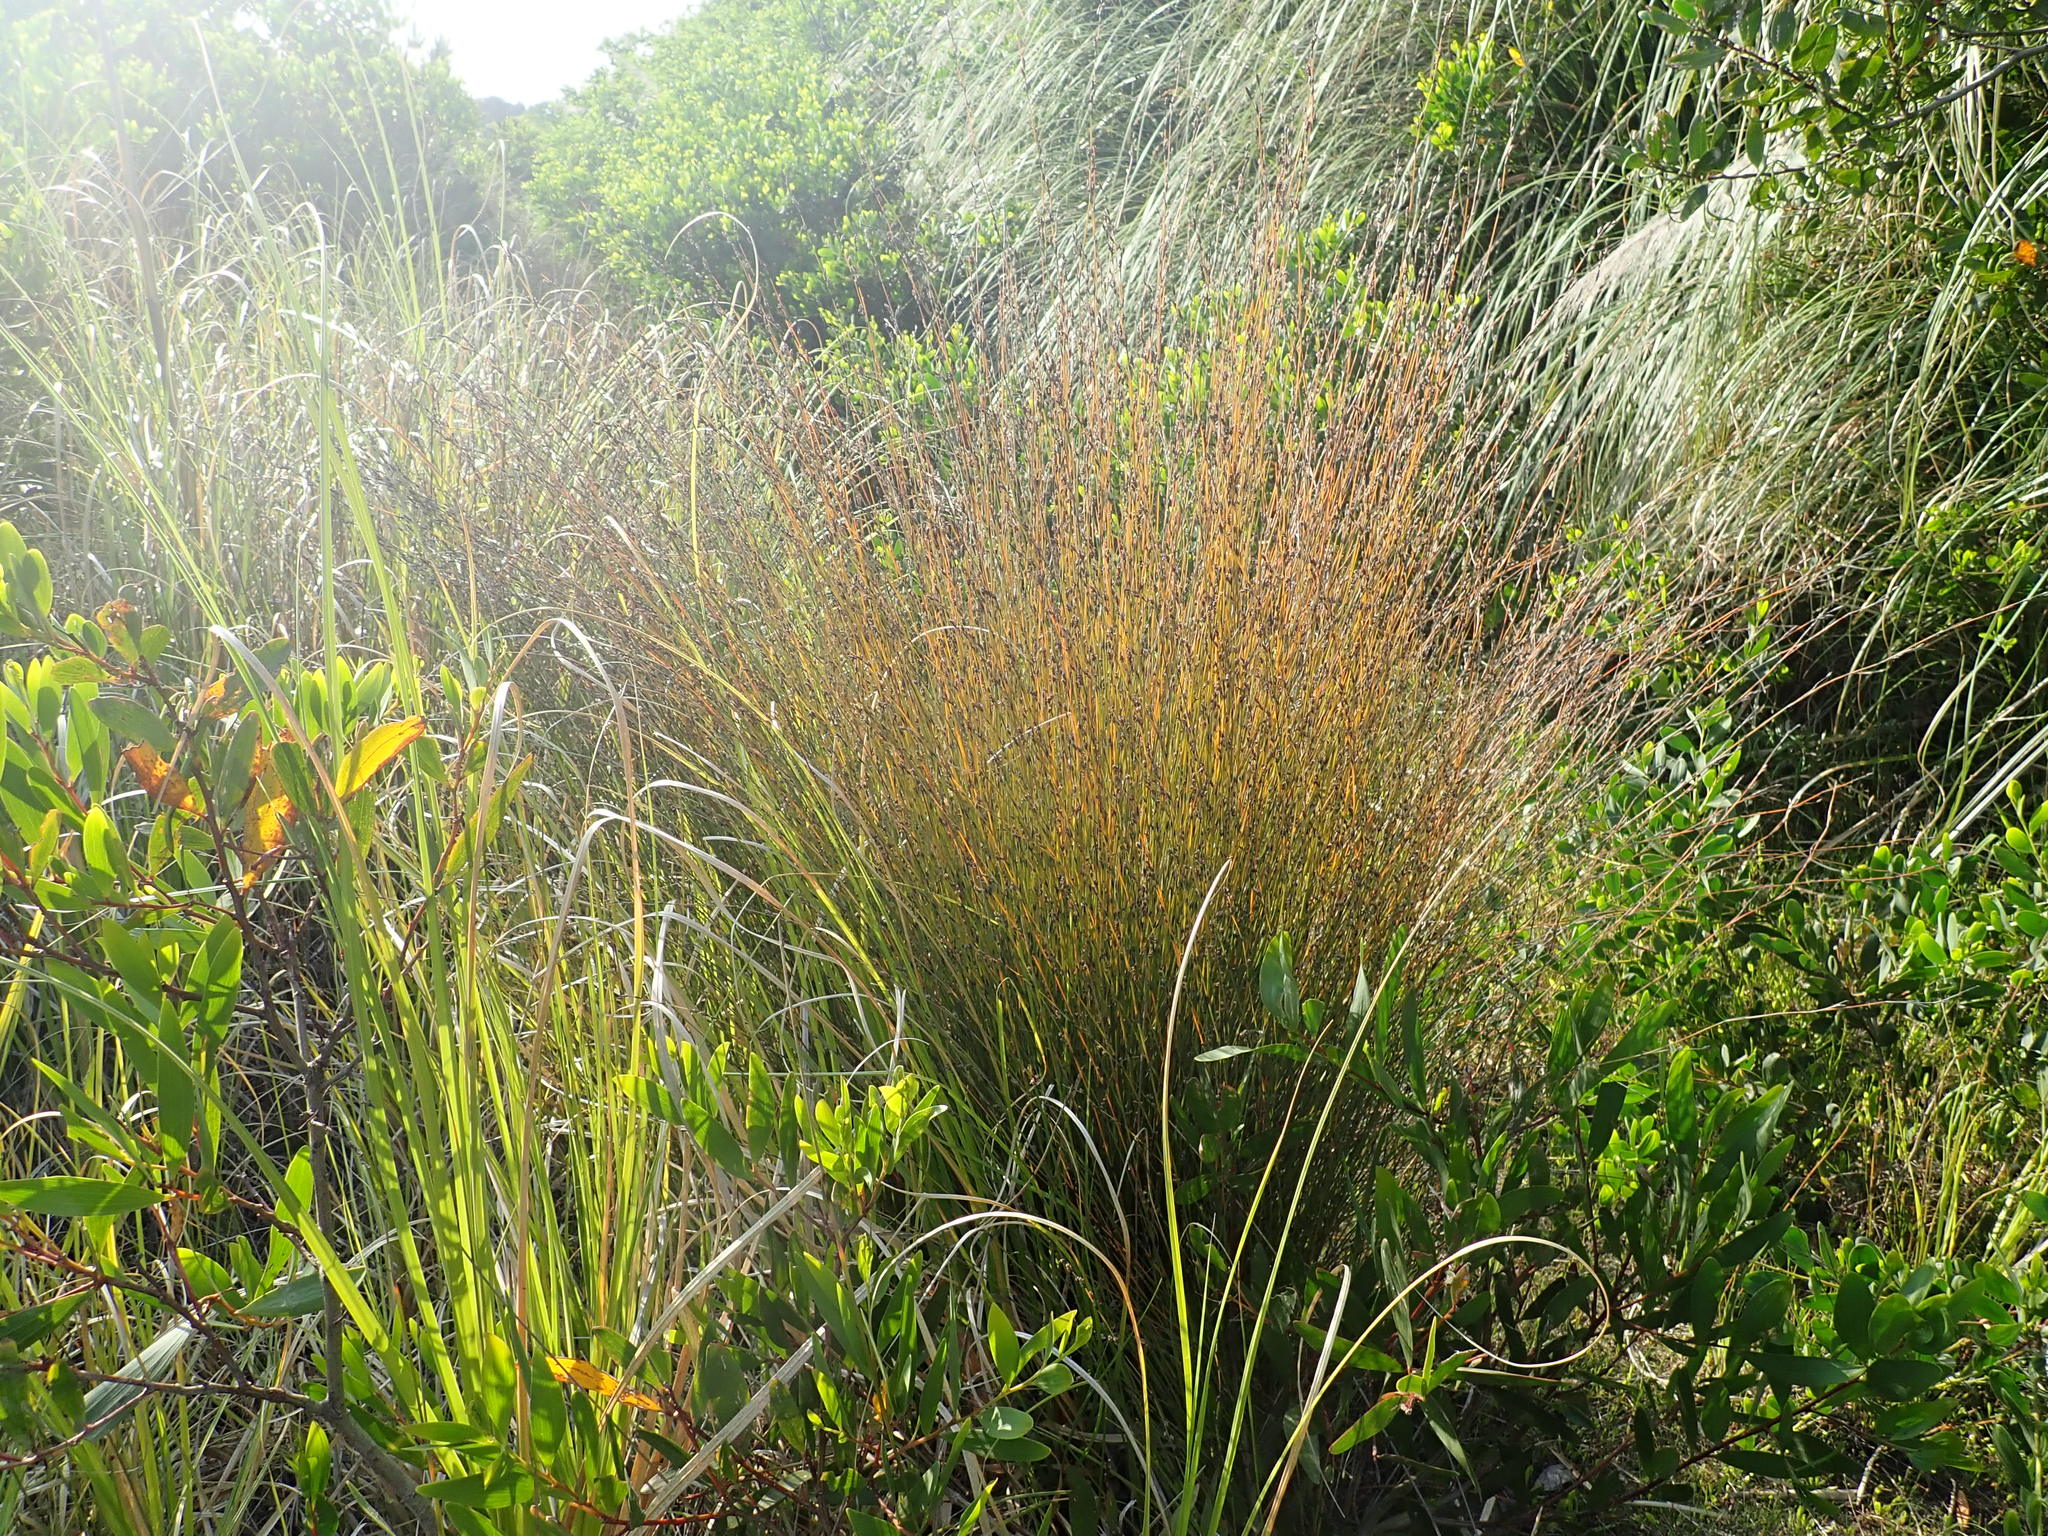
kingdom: Plantae
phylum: Tracheophyta
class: Liliopsida
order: Poales
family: Restionaceae
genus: Apodasmia
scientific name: Apodasmia similis
